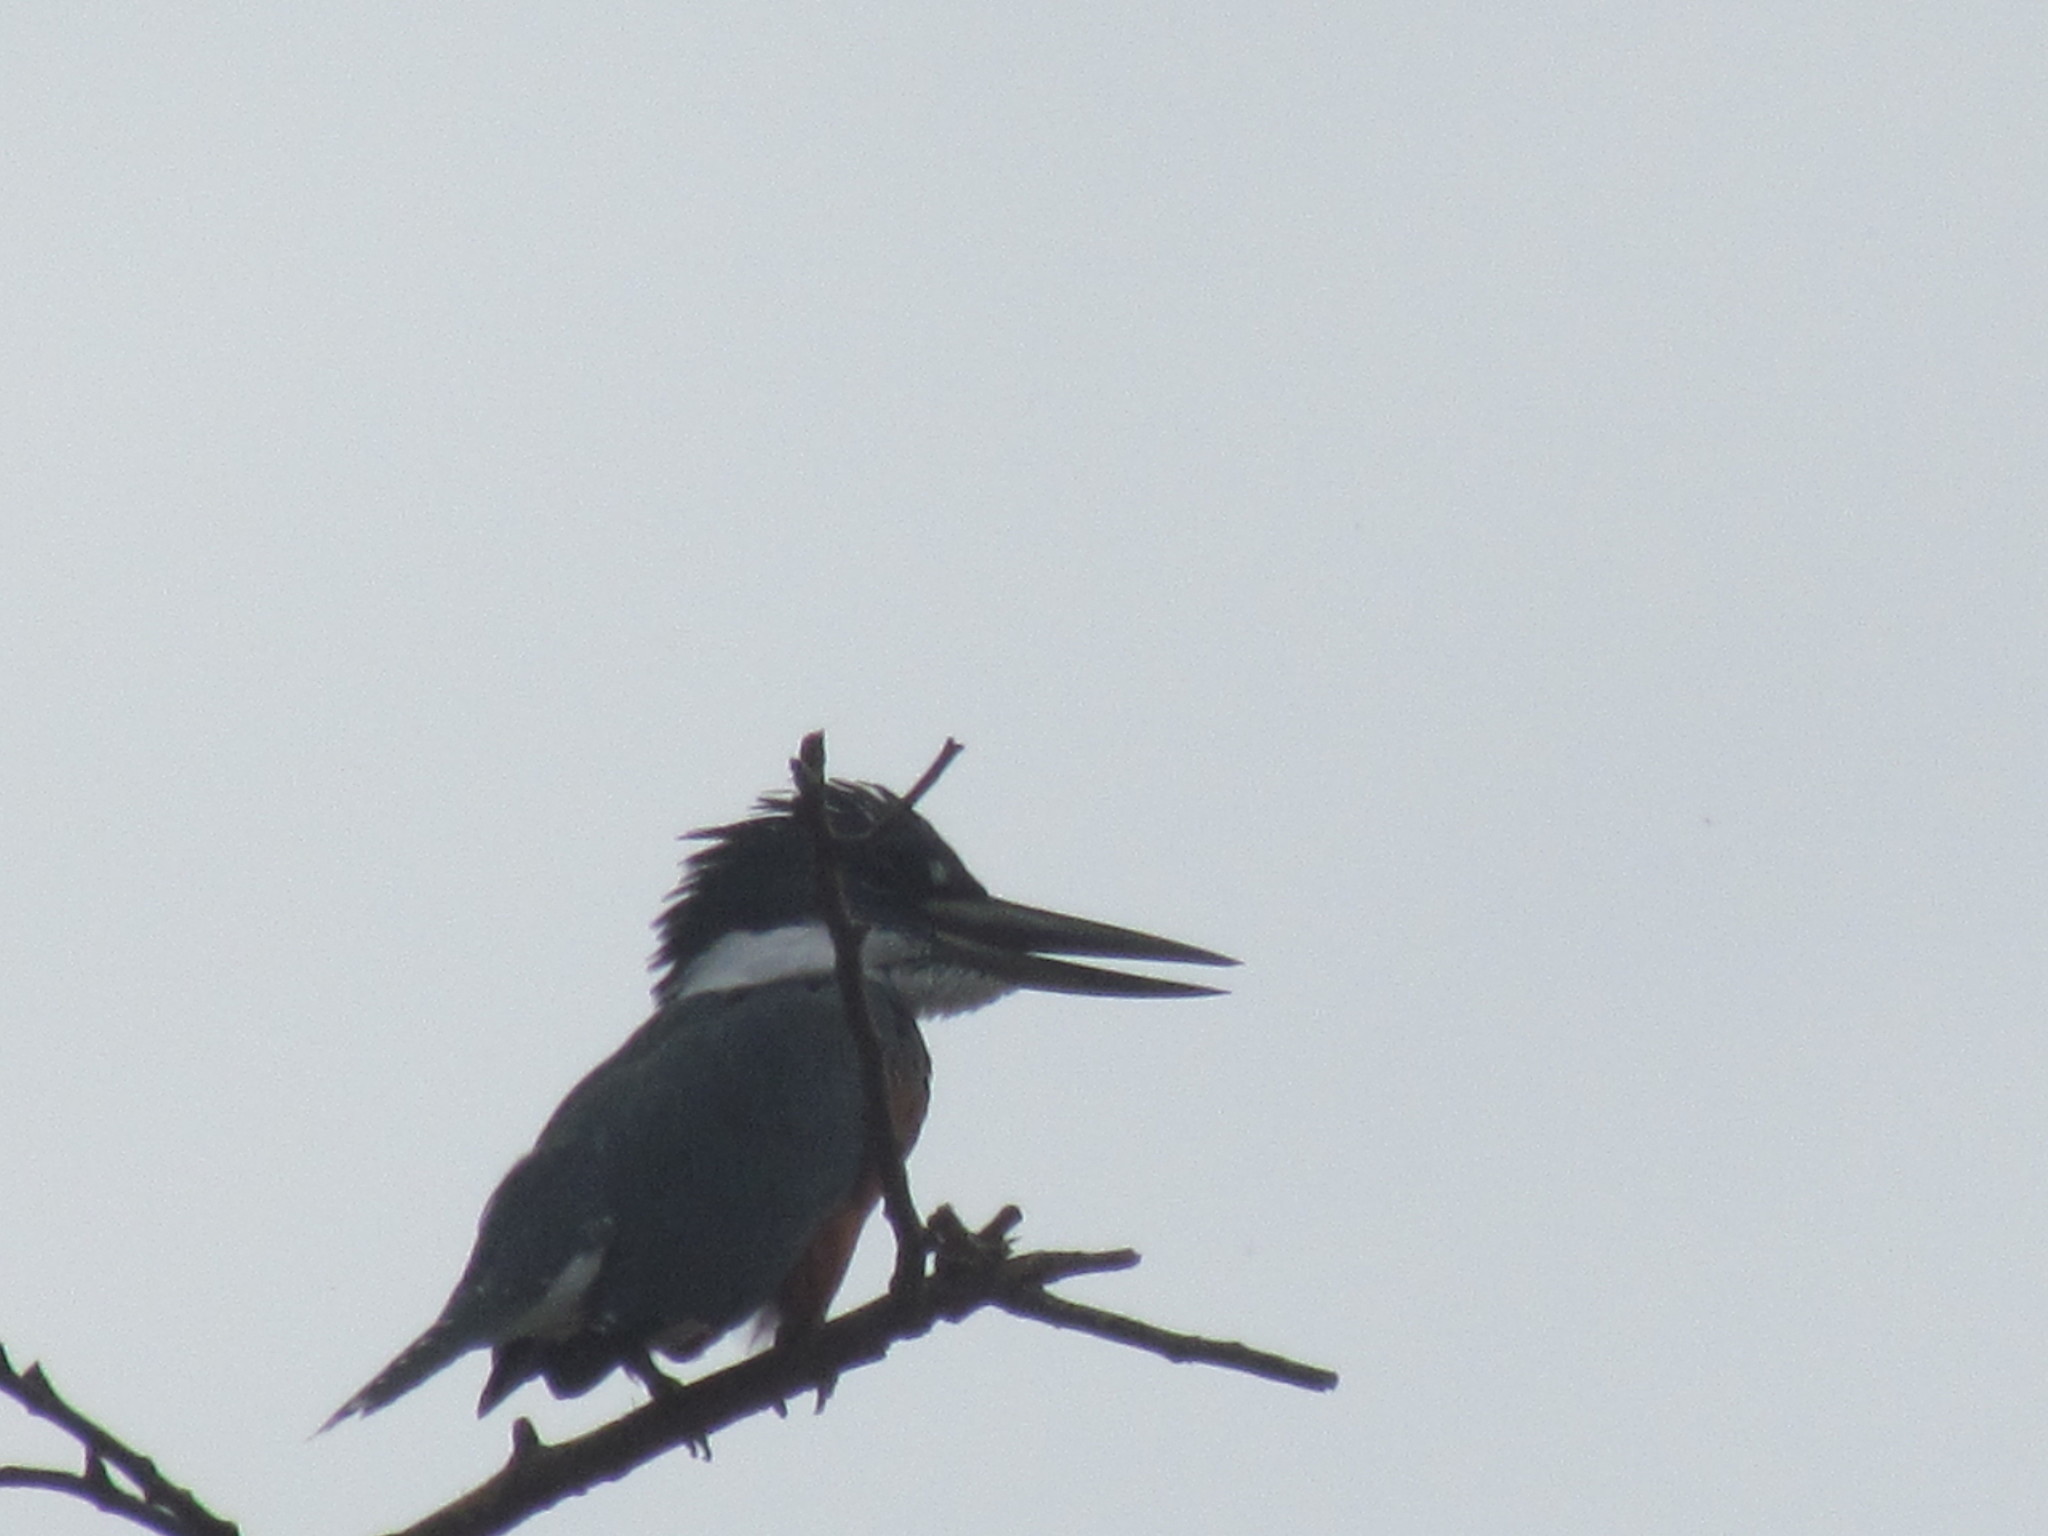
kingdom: Animalia
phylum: Chordata
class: Aves
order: Coraciiformes
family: Alcedinidae
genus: Megaceryle
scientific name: Megaceryle torquata
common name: Ringed kingfisher
